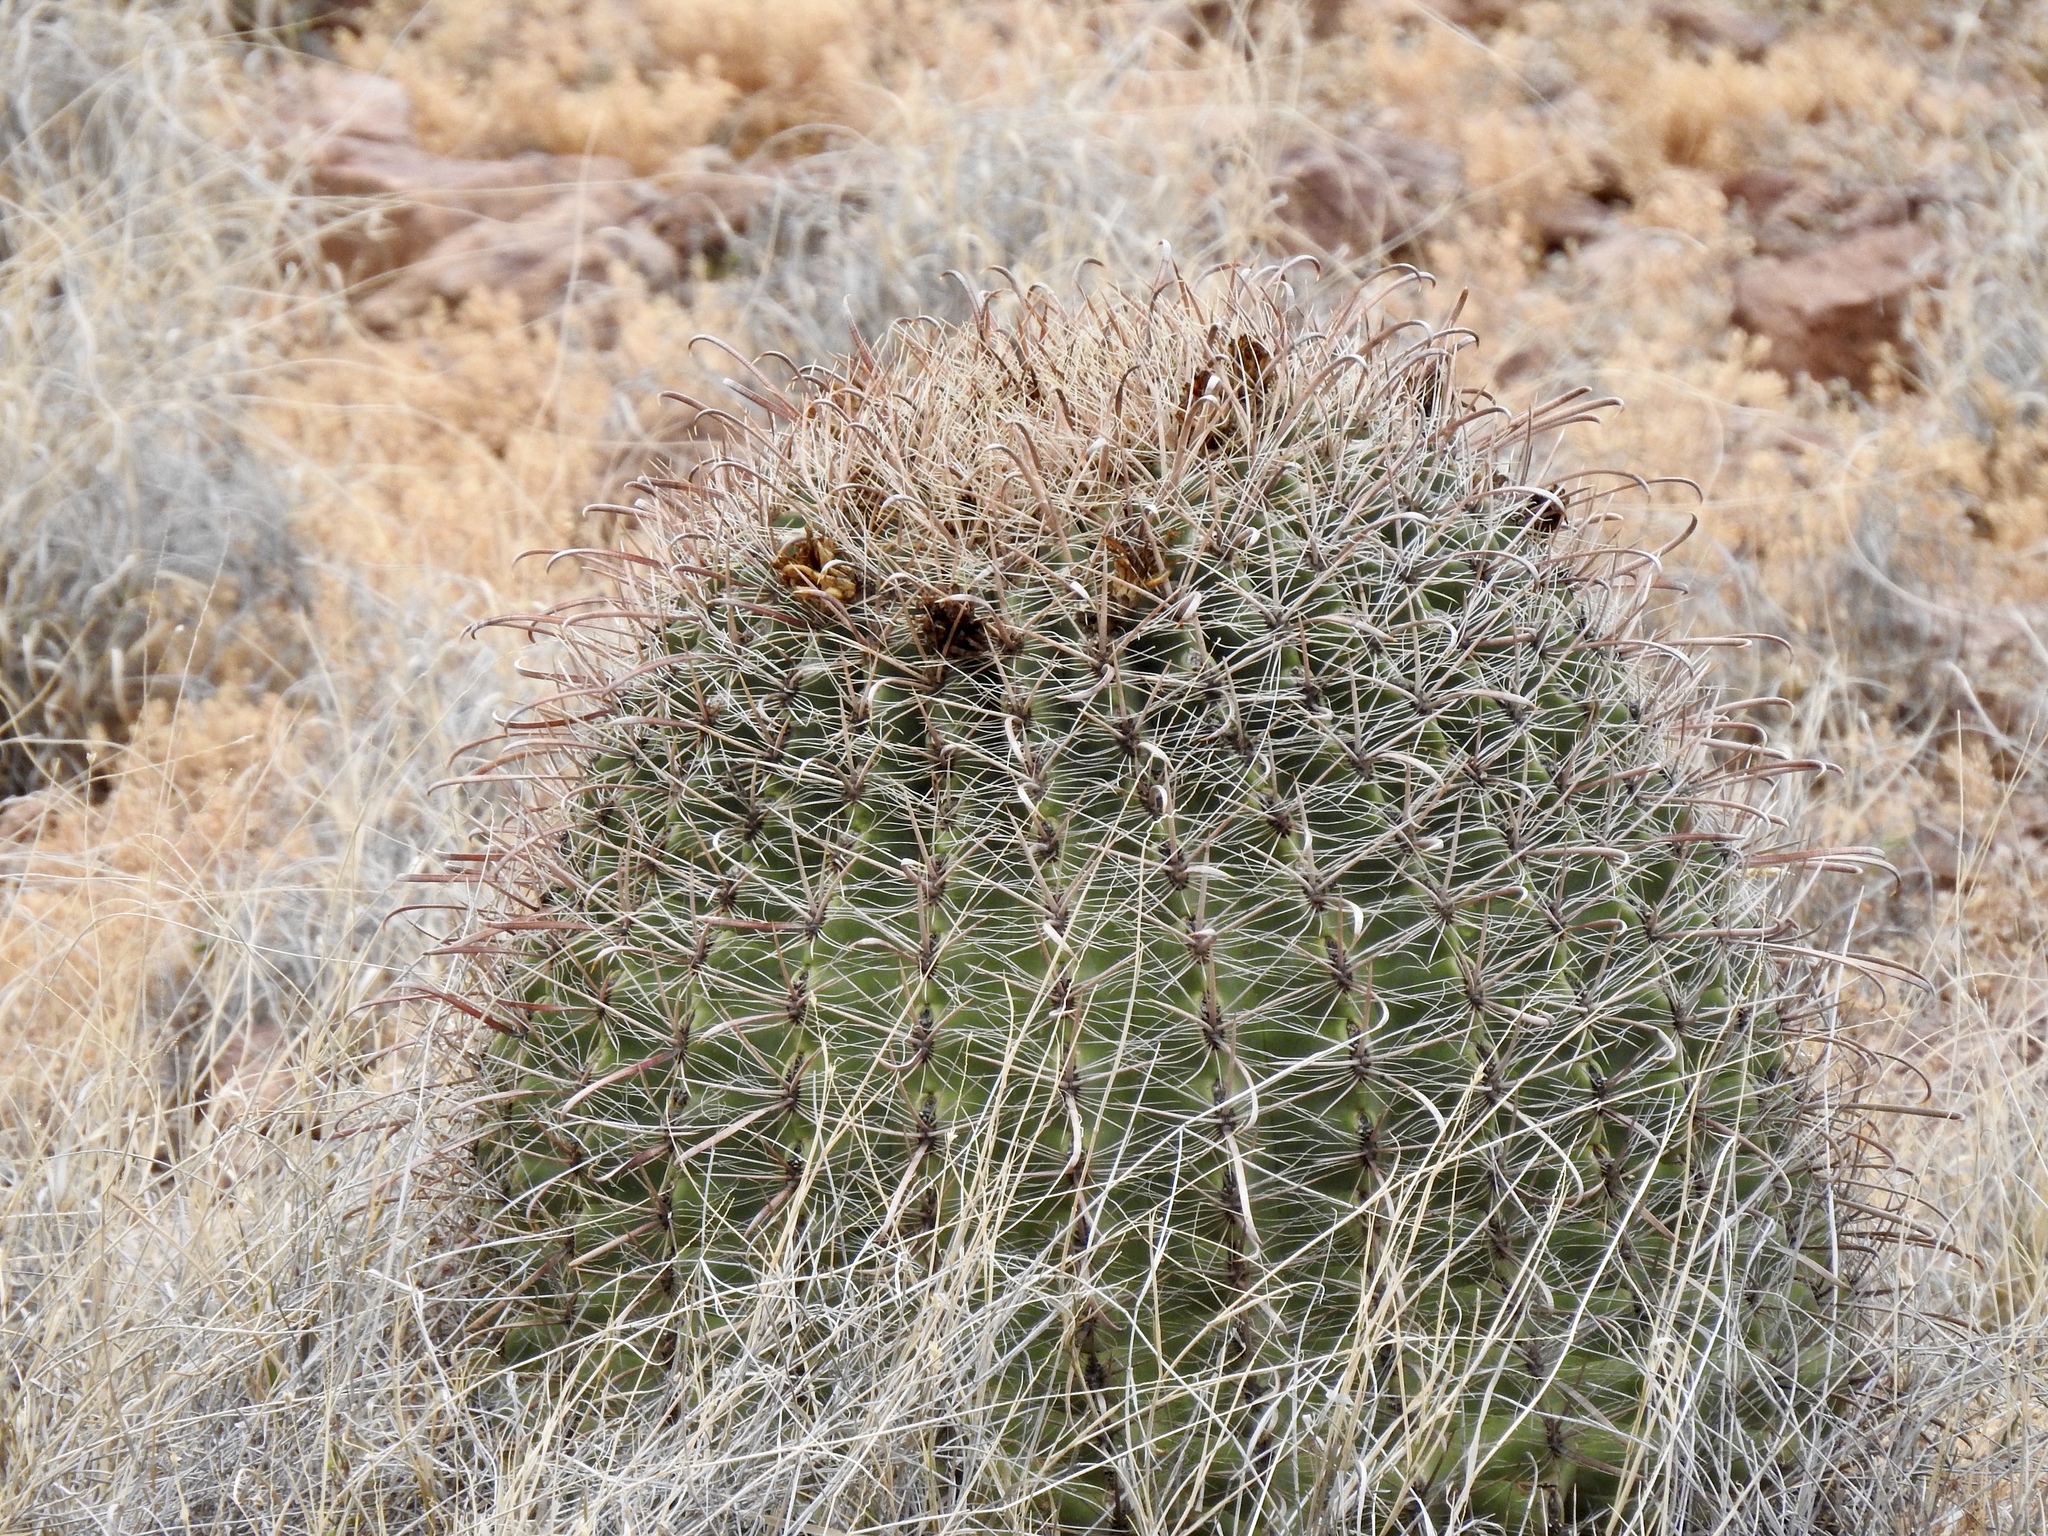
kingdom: Plantae
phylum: Tracheophyta
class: Magnoliopsida
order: Caryophyllales
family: Cactaceae
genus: Ferocactus
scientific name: Ferocactus wislizeni
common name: Candy barrel cactus
